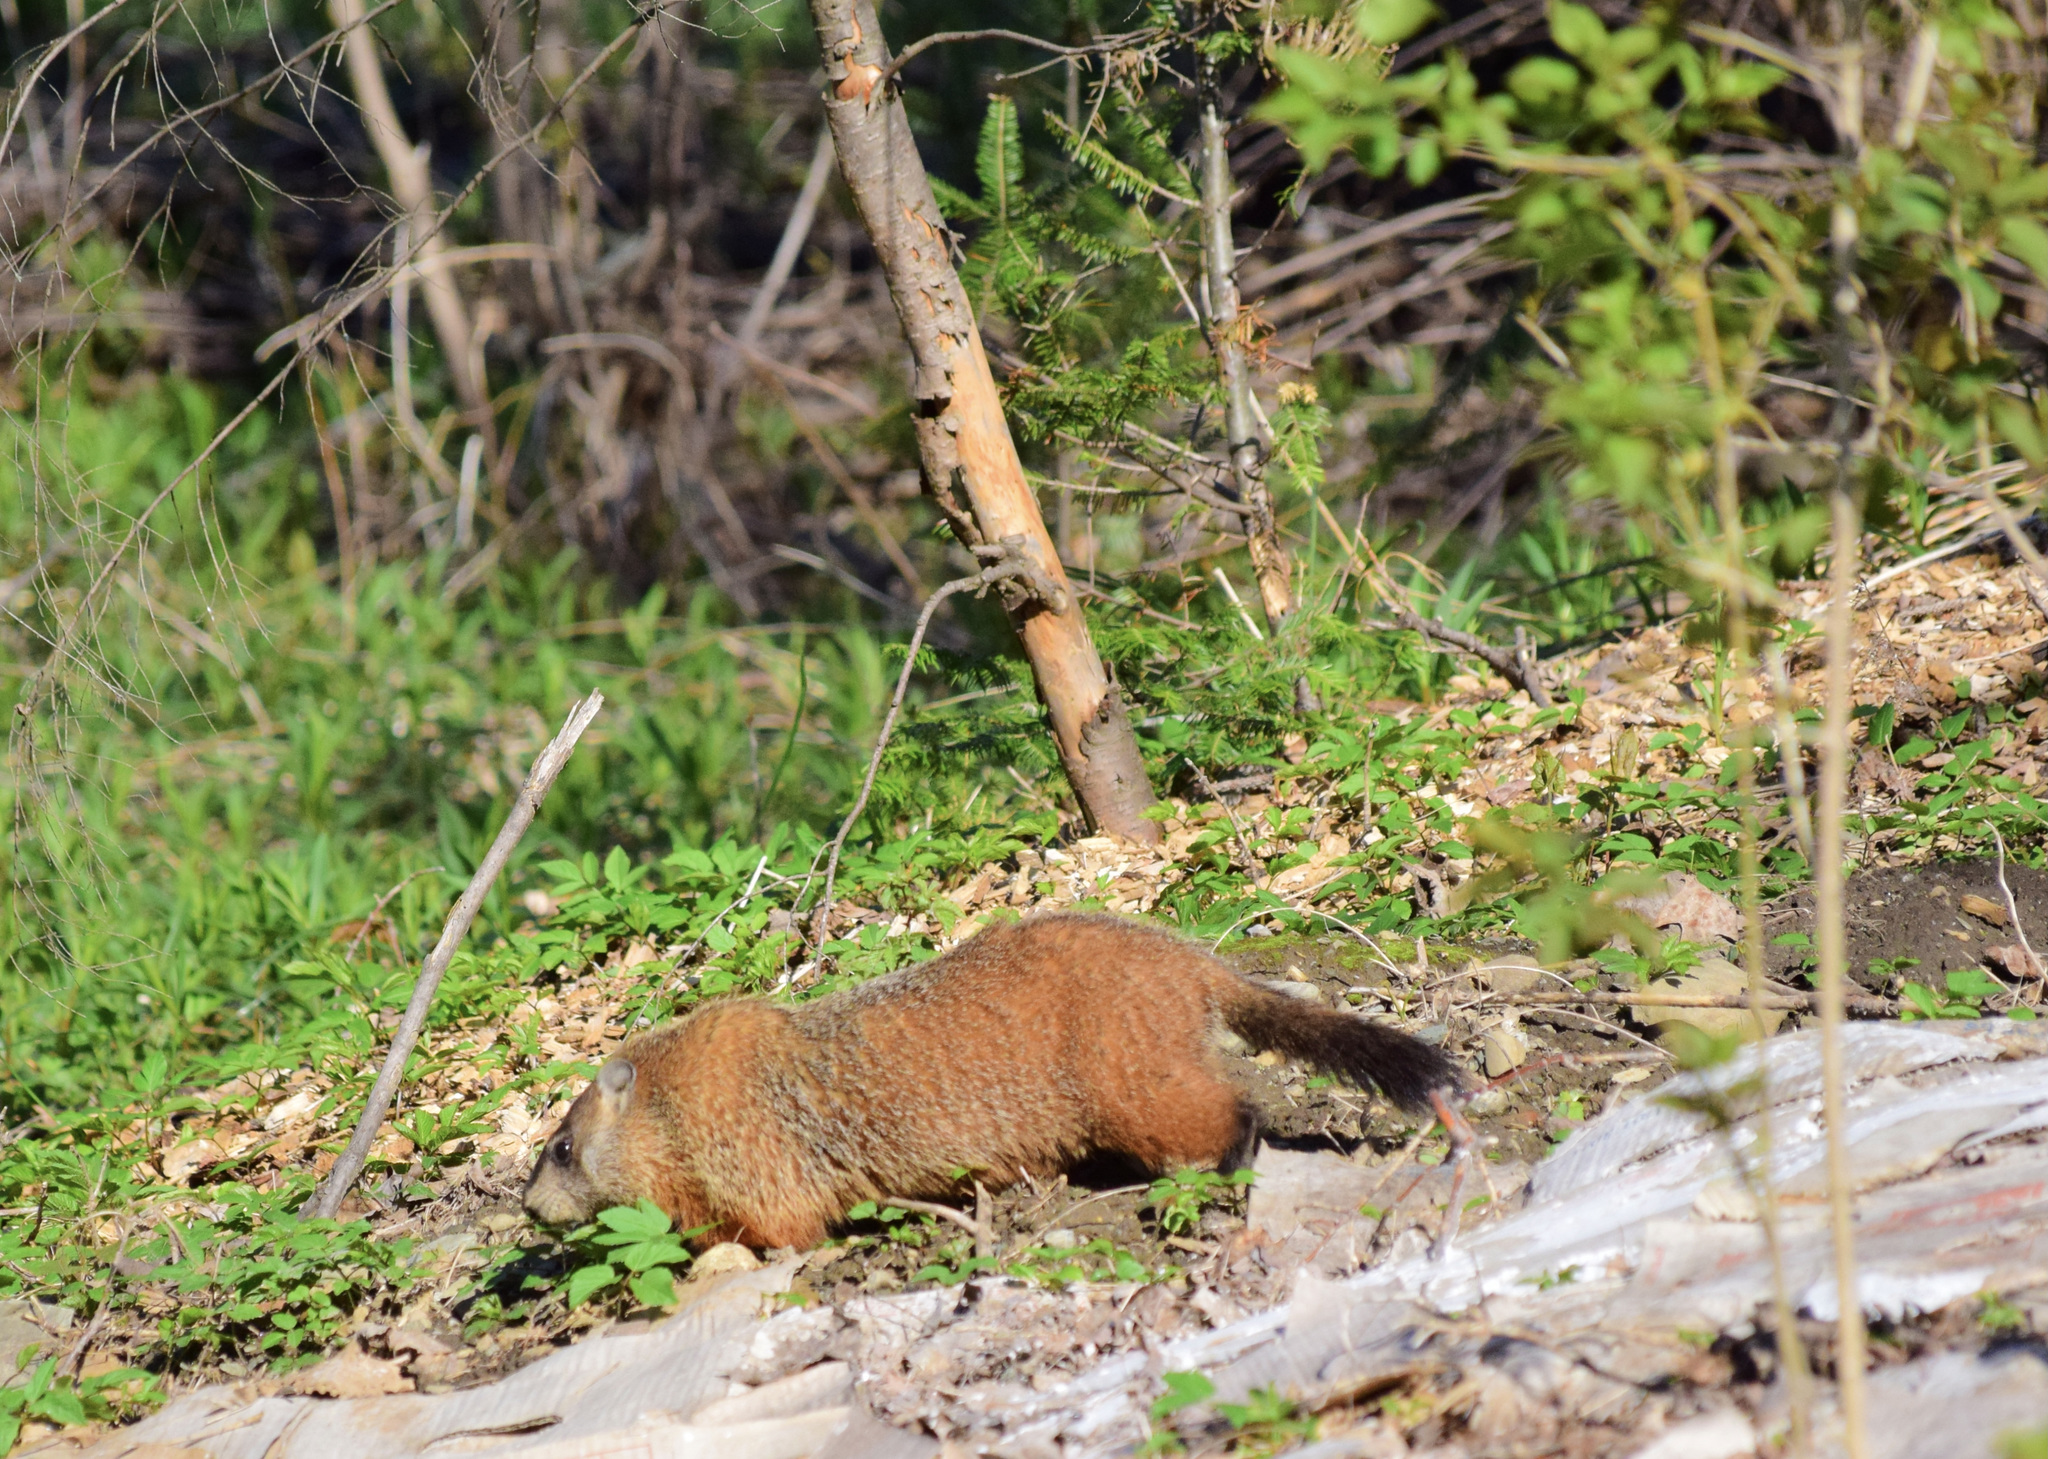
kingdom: Animalia
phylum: Chordata
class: Mammalia
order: Rodentia
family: Sciuridae
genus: Marmota
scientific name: Marmota monax
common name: Groundhog
